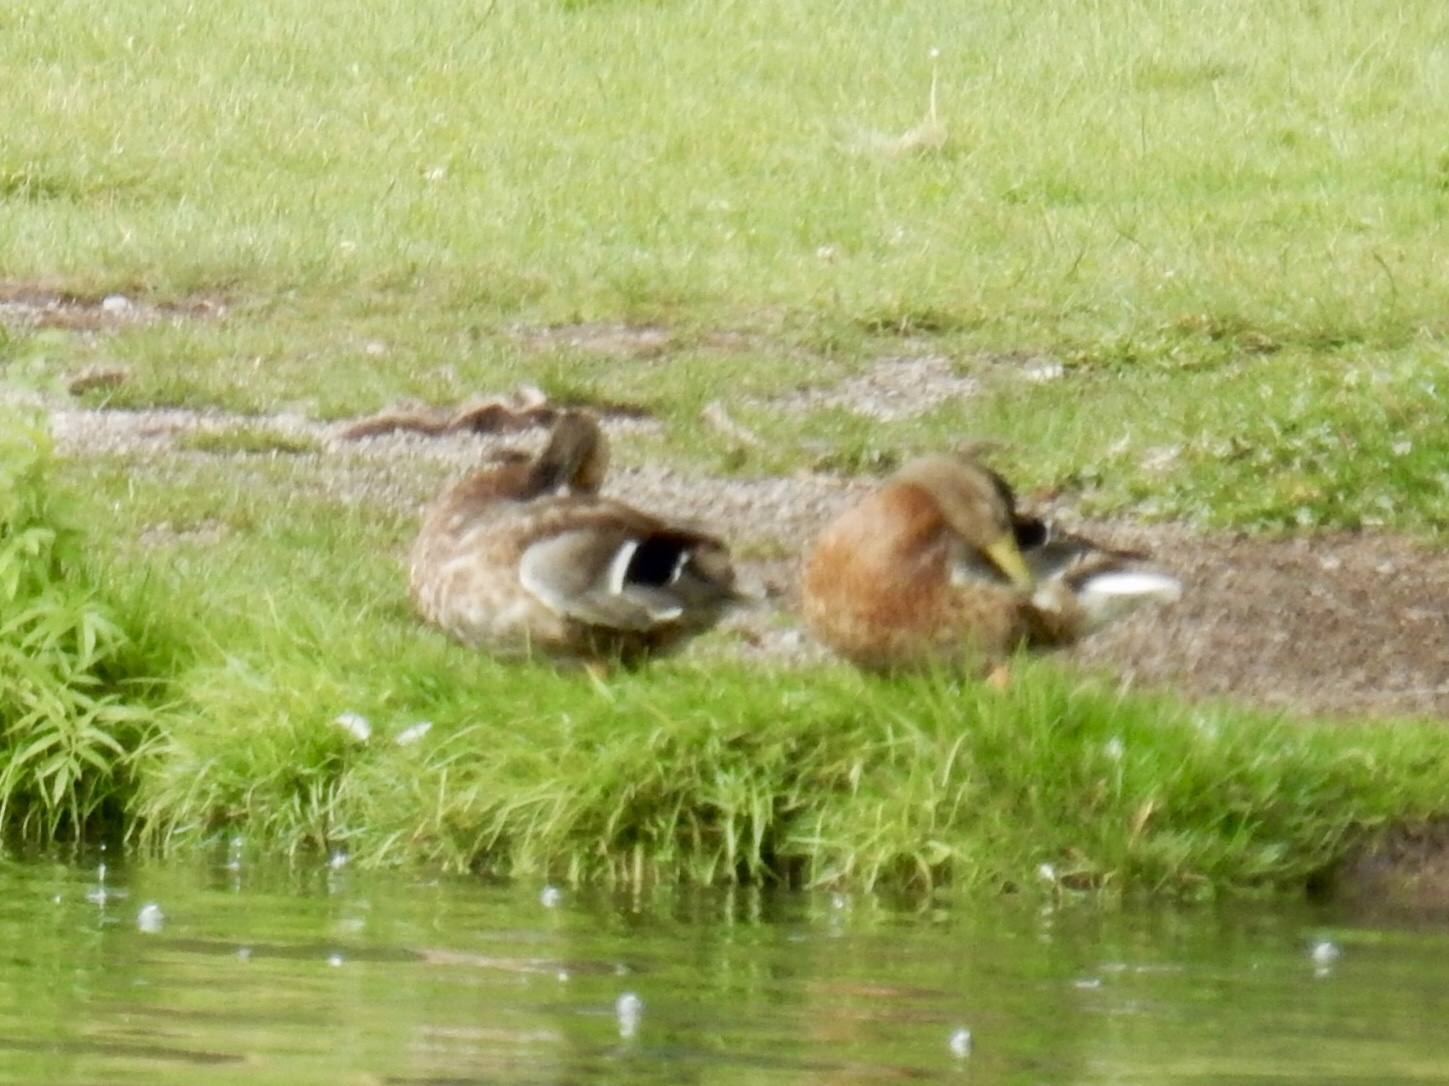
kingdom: Animalia
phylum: Chordata
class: Aves
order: Anseriformes
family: Anatidae
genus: Anas
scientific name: Anas platyrhynchos
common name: Mallard
